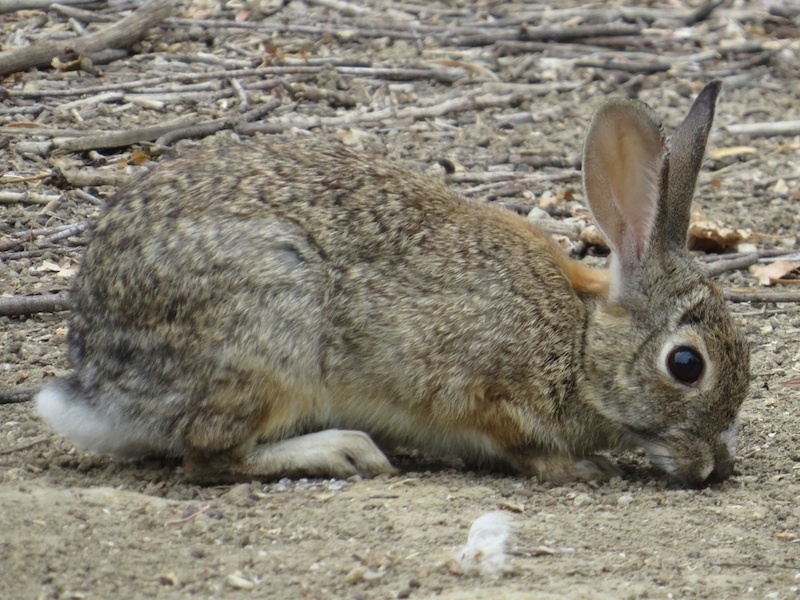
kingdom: Animalia
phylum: Chordata
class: Mammalia
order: Lagomorpha
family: Leporidae
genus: Sylvilagus
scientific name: Sylvilagus audubonii
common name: Desert cottontail
